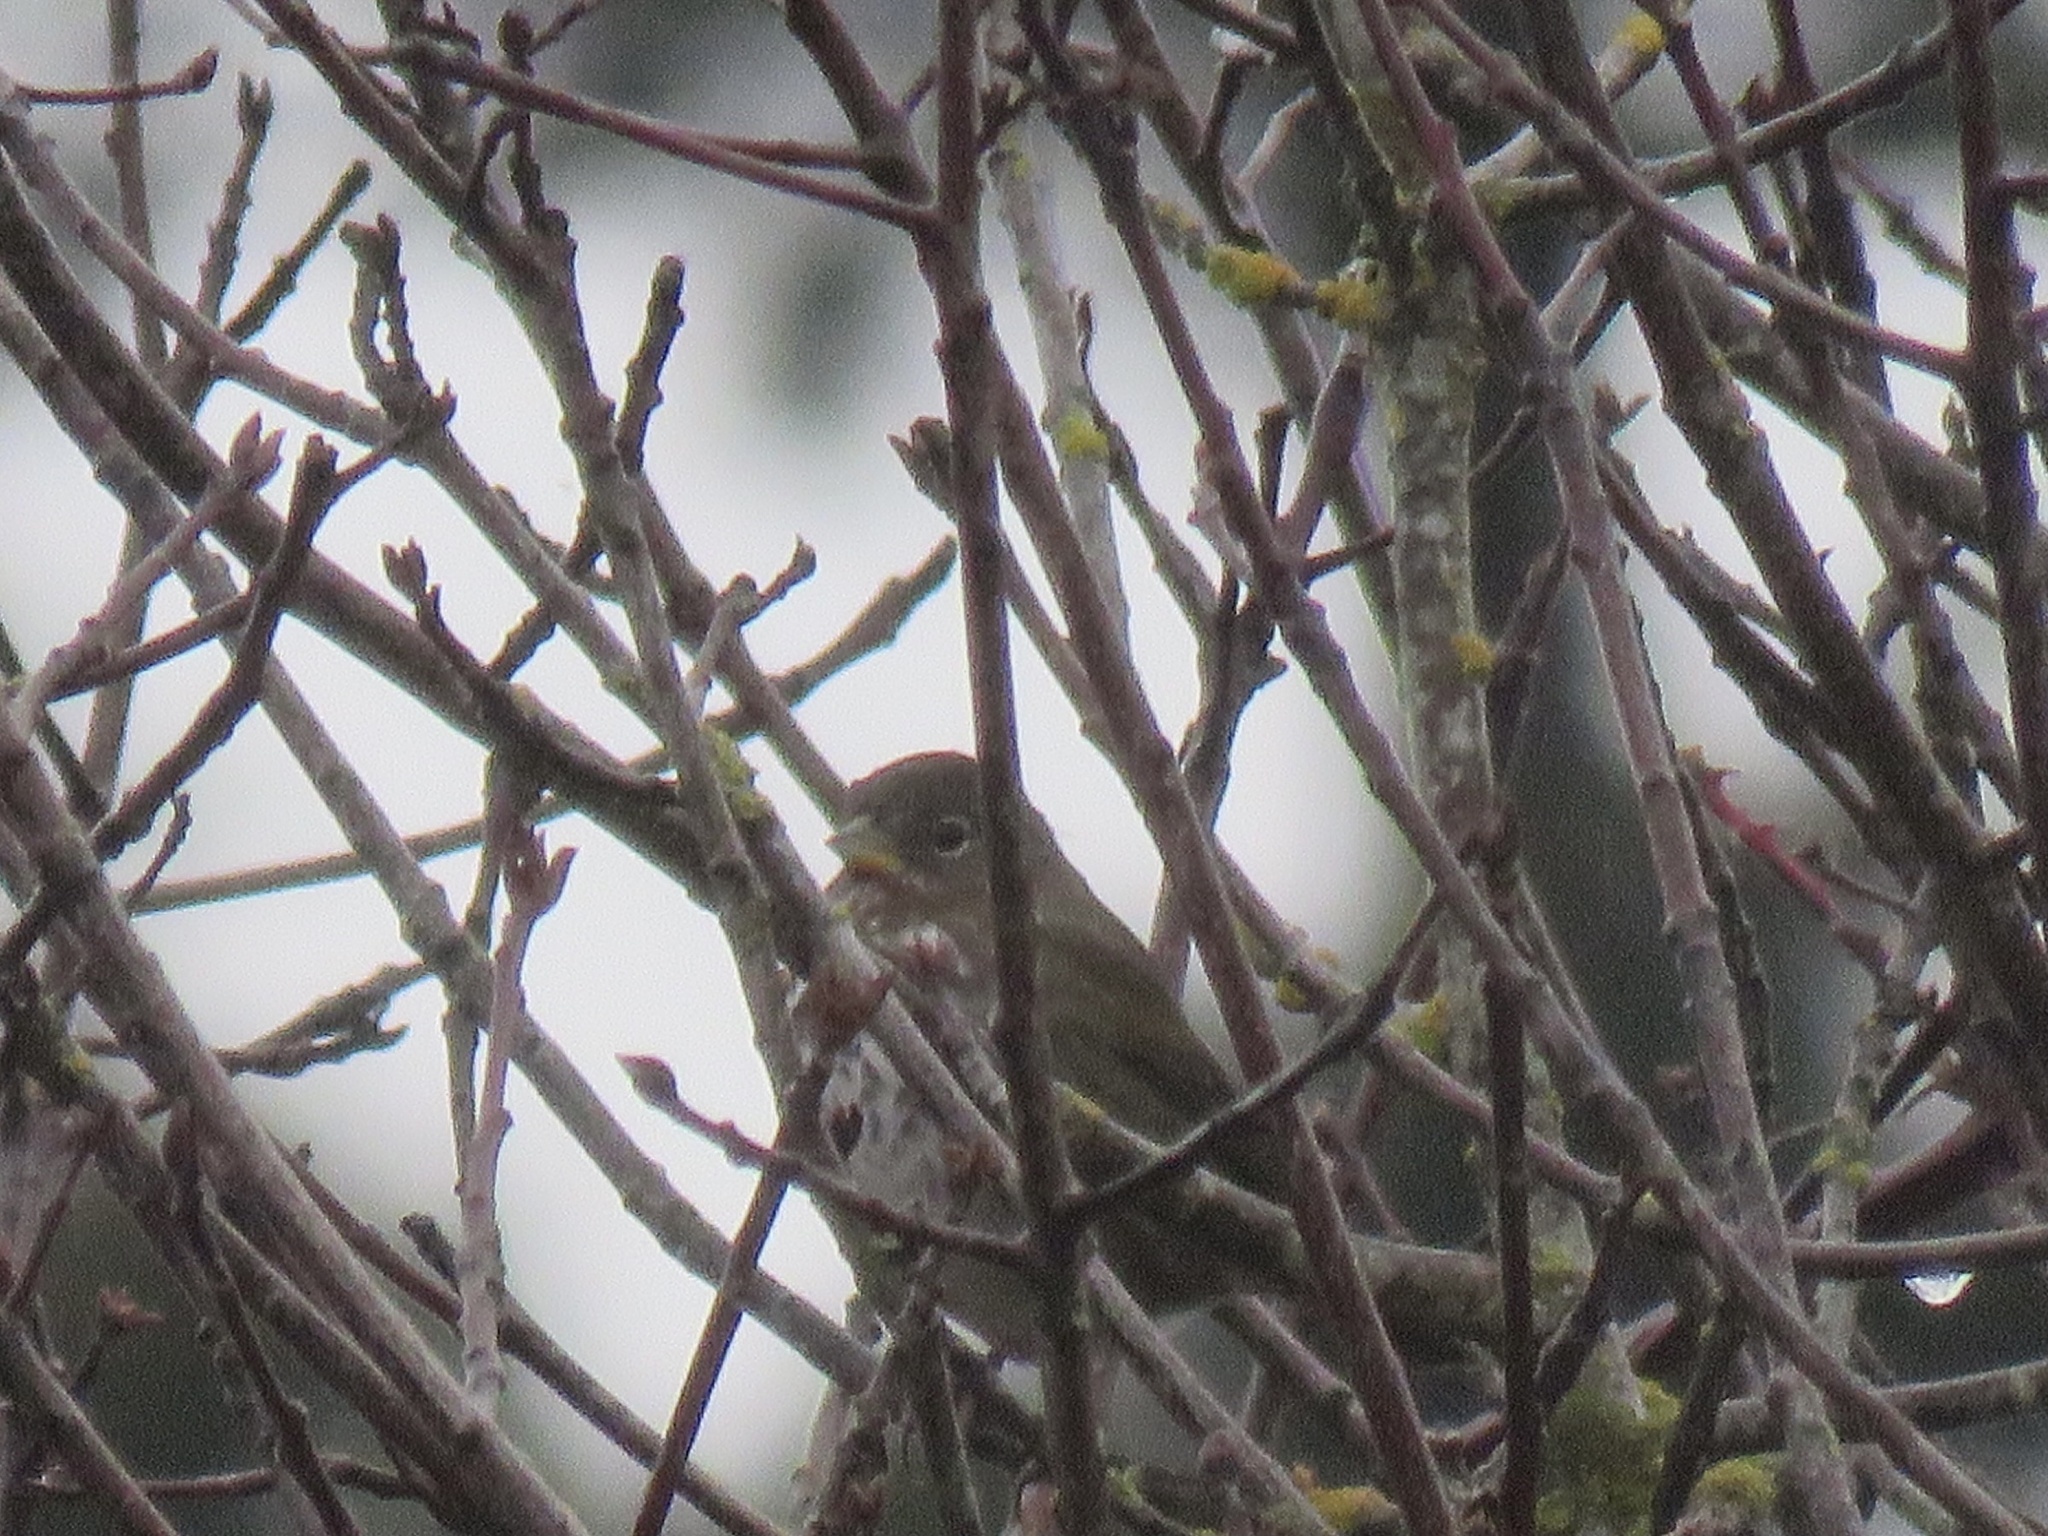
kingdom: Animalia
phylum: Chordata
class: Aves
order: Passeriformes
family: Passerellidae
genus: Passerella
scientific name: Passerella iliaca
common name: Fox sparrow
